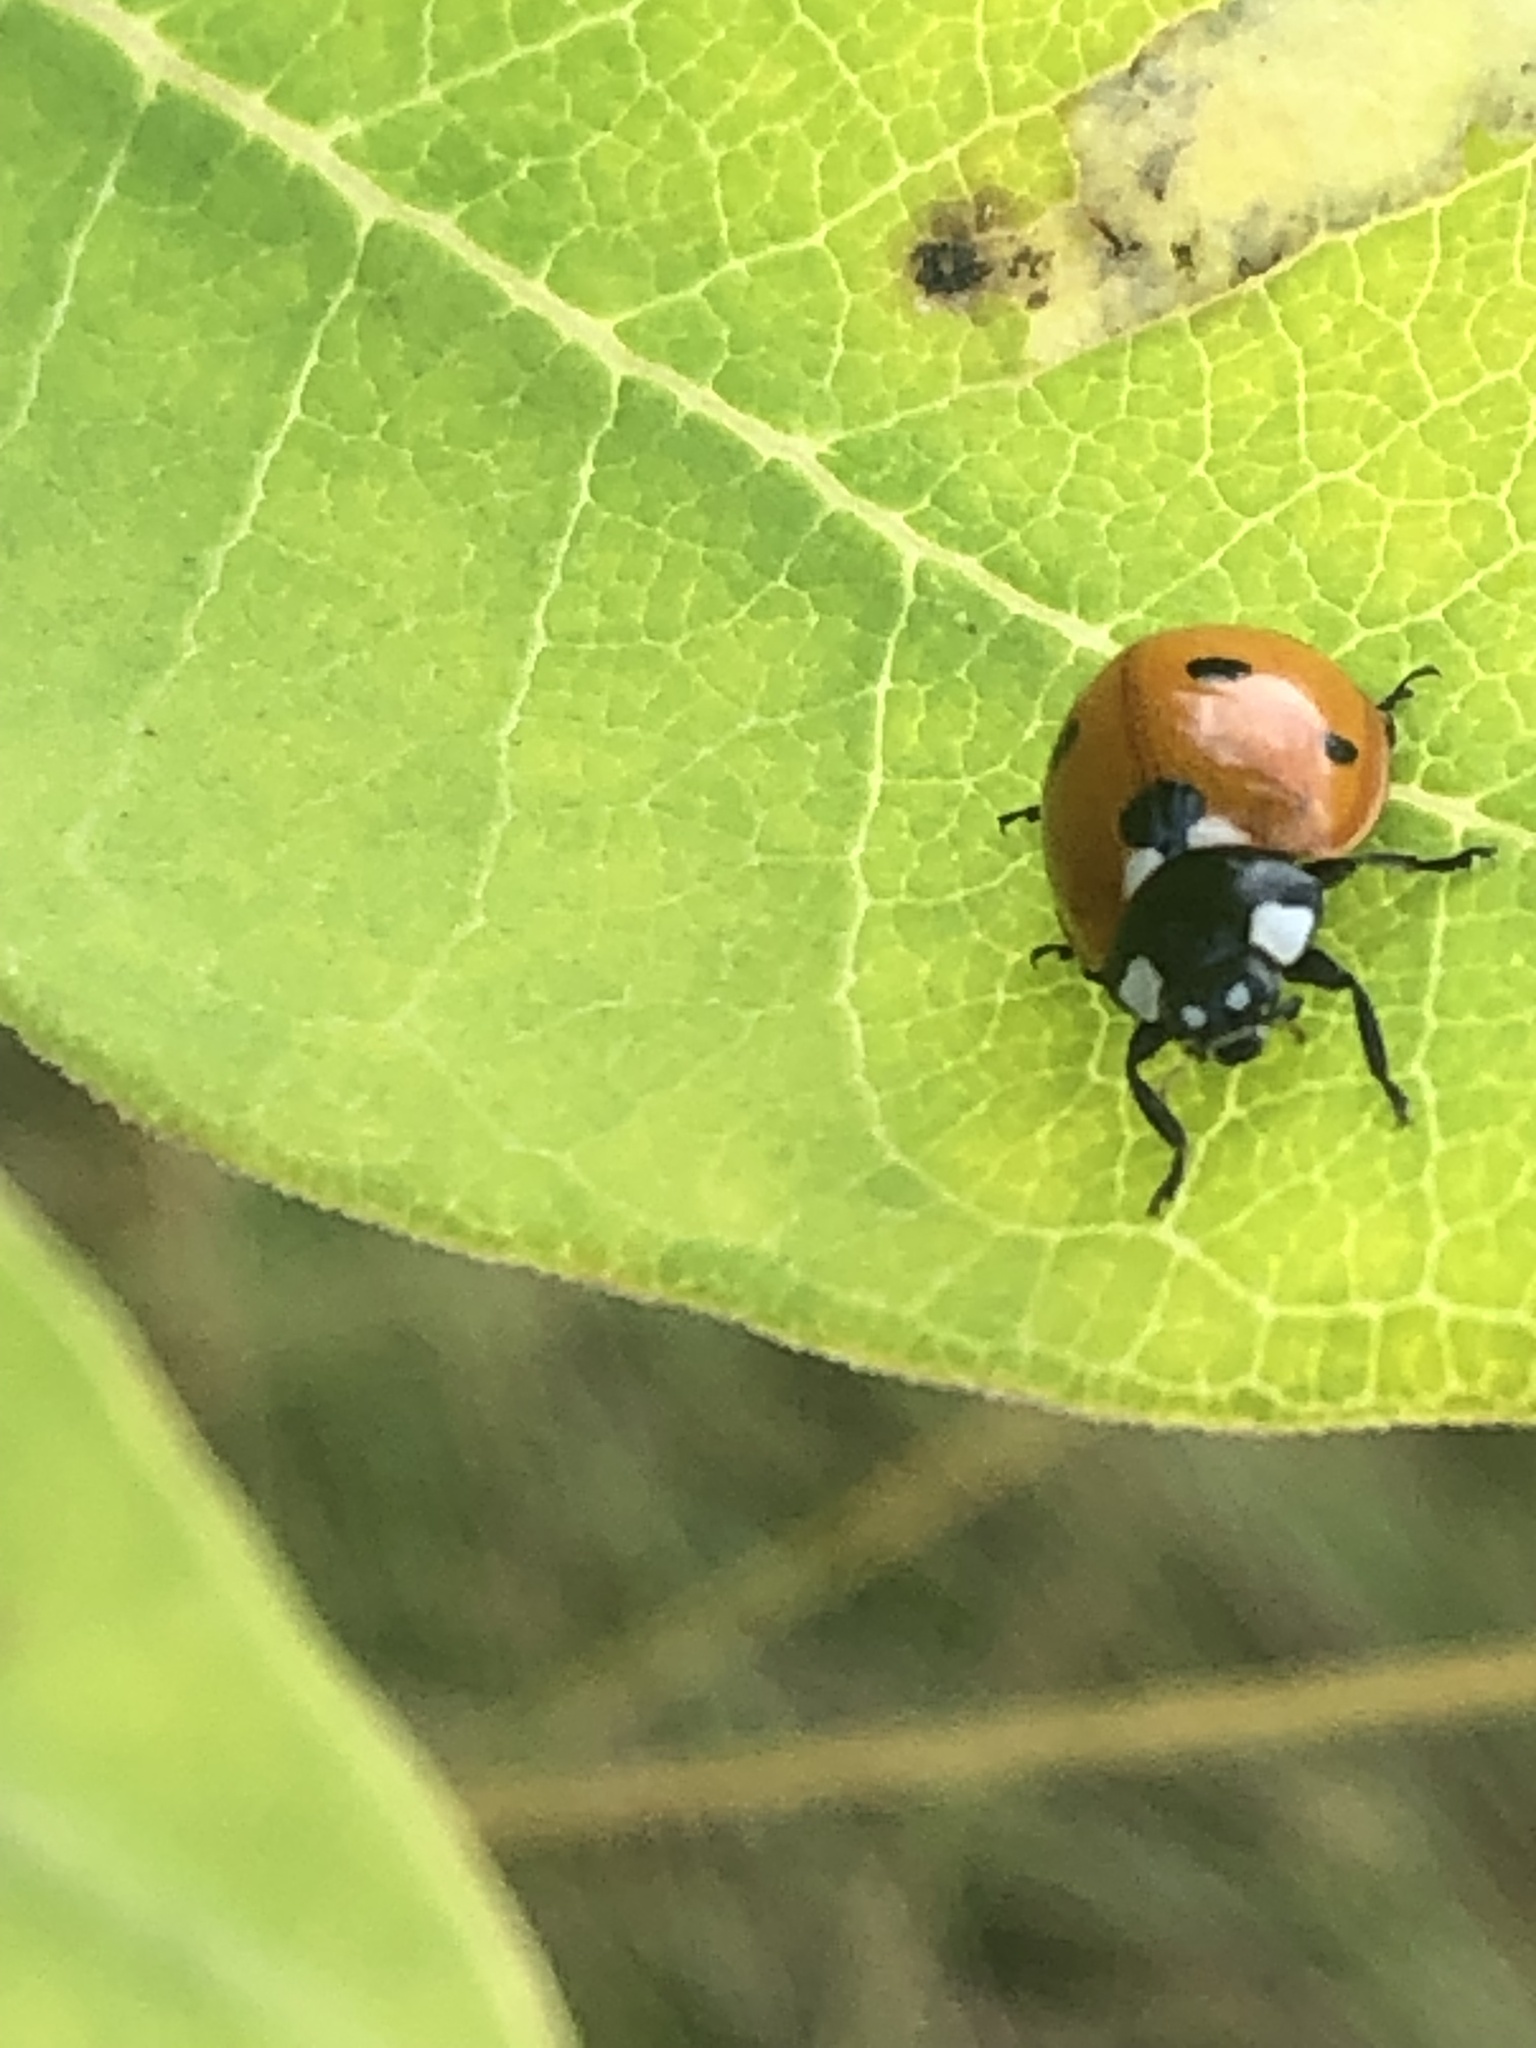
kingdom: Animalia
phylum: Arthropoda
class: Insecta
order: Coleoptera
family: Coccinellidae
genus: Coccinella
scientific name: Coccinella septempunctata
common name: Sevenspotted lady beetle
